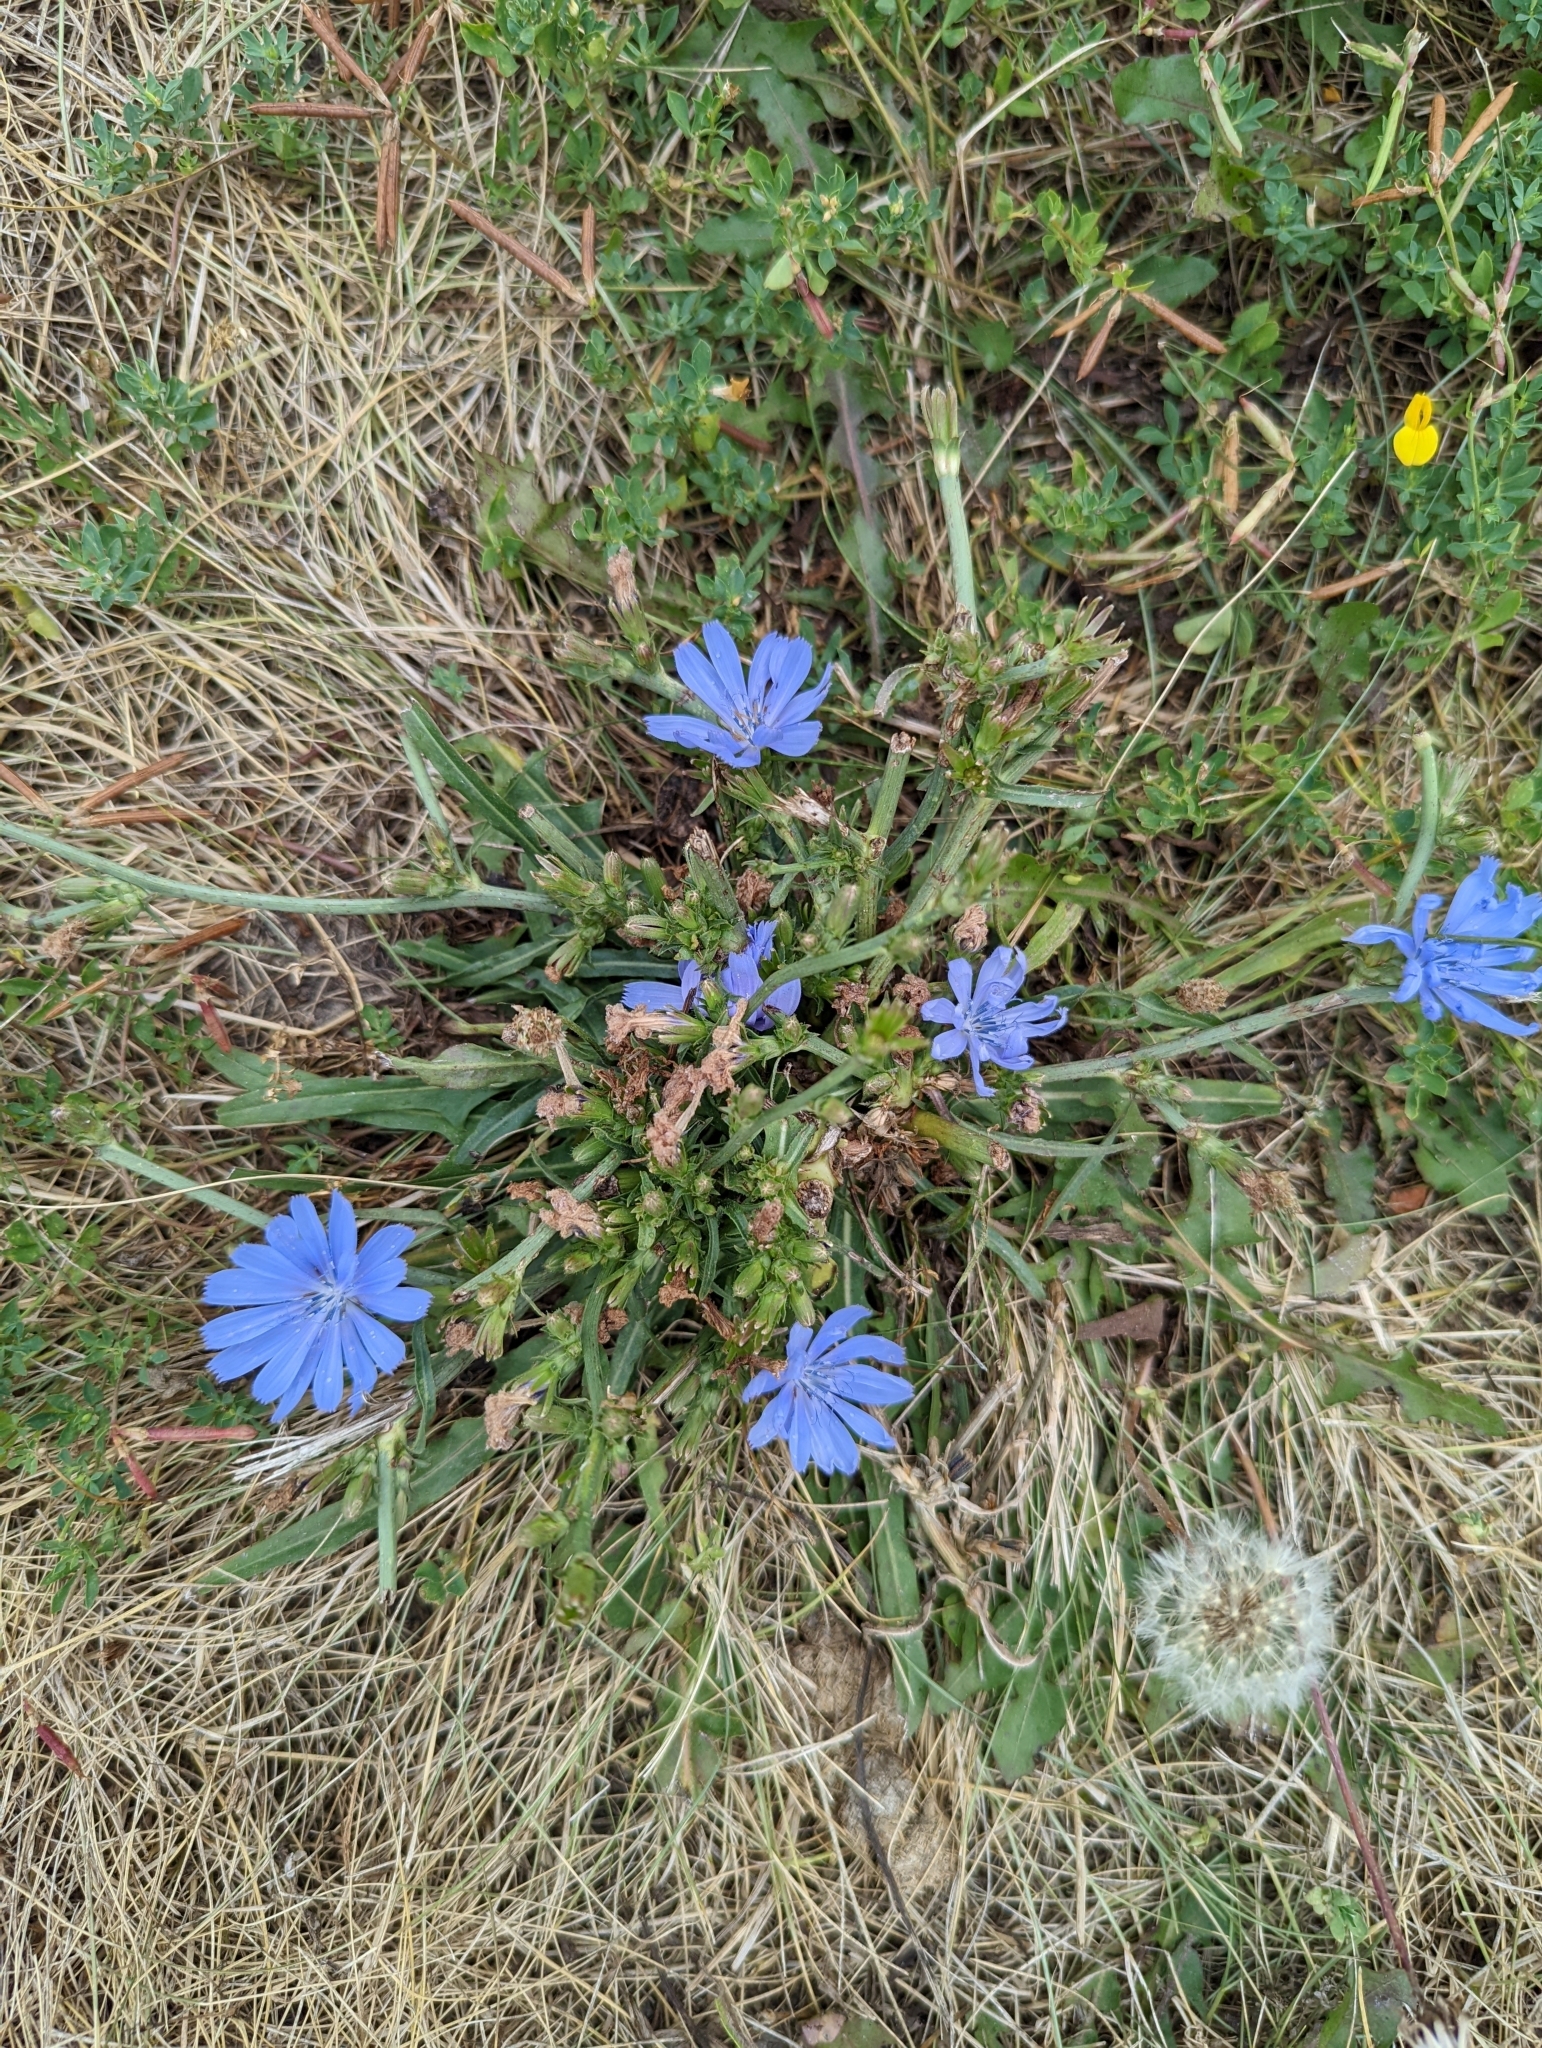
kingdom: Plantae
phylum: Tracheophyta
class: Magnoliopsida
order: Asterales
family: Asteraceae
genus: Cichorium
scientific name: Cichorium intybus
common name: Chicory
